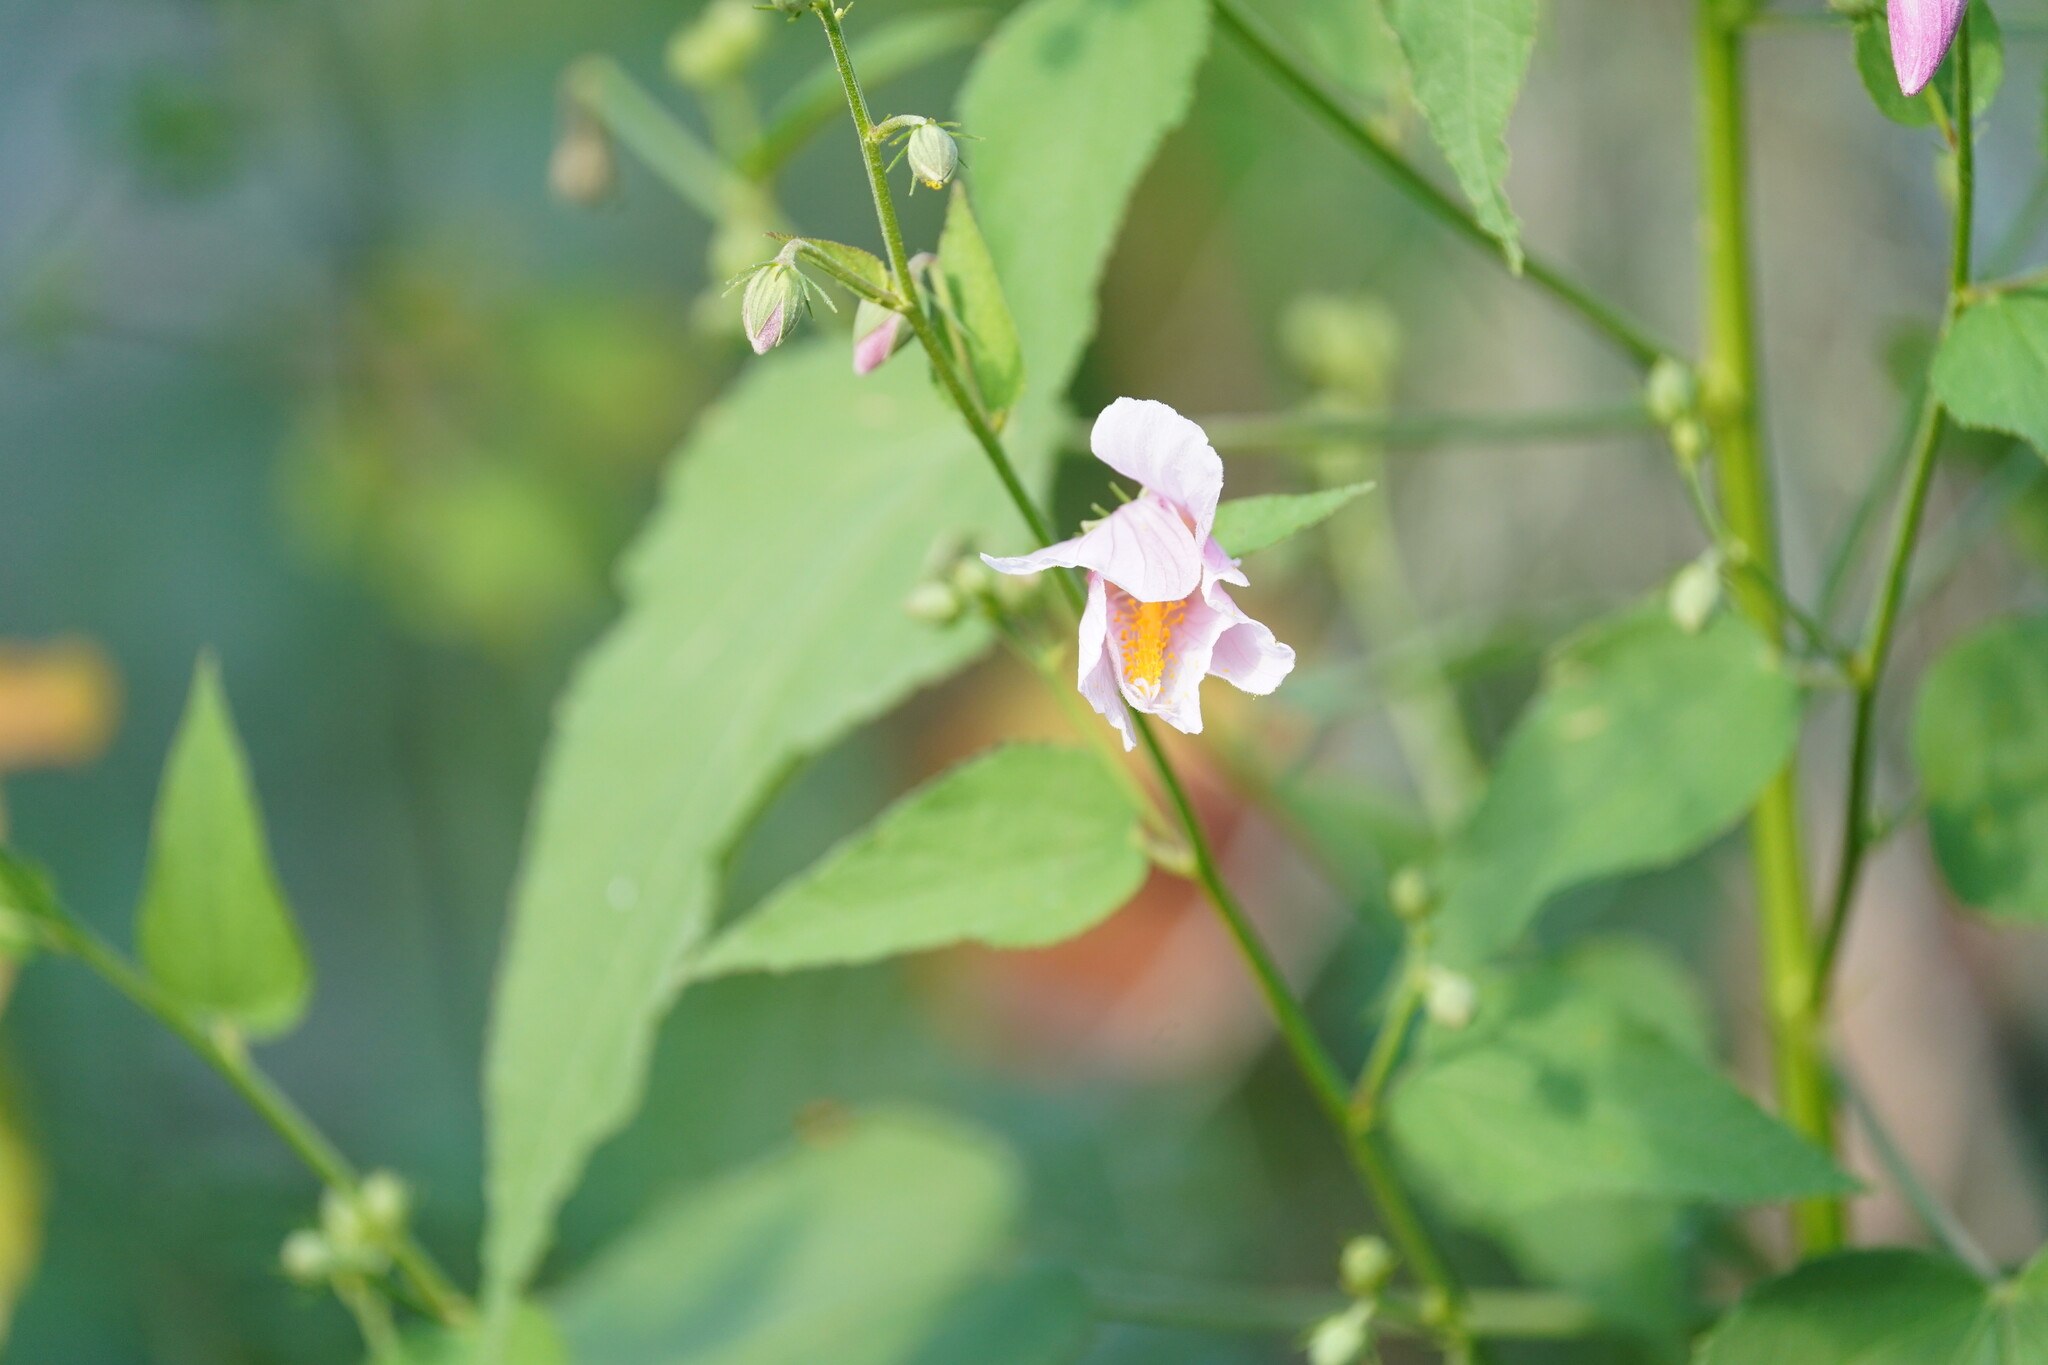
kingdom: Plantae
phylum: Tracheophyta
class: Magnoliopsida
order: Malvales
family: Malvaceae
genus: Kosteletzkya
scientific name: Kosteletzkya pentacarpos
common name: Virginia saltmarsh mallow
